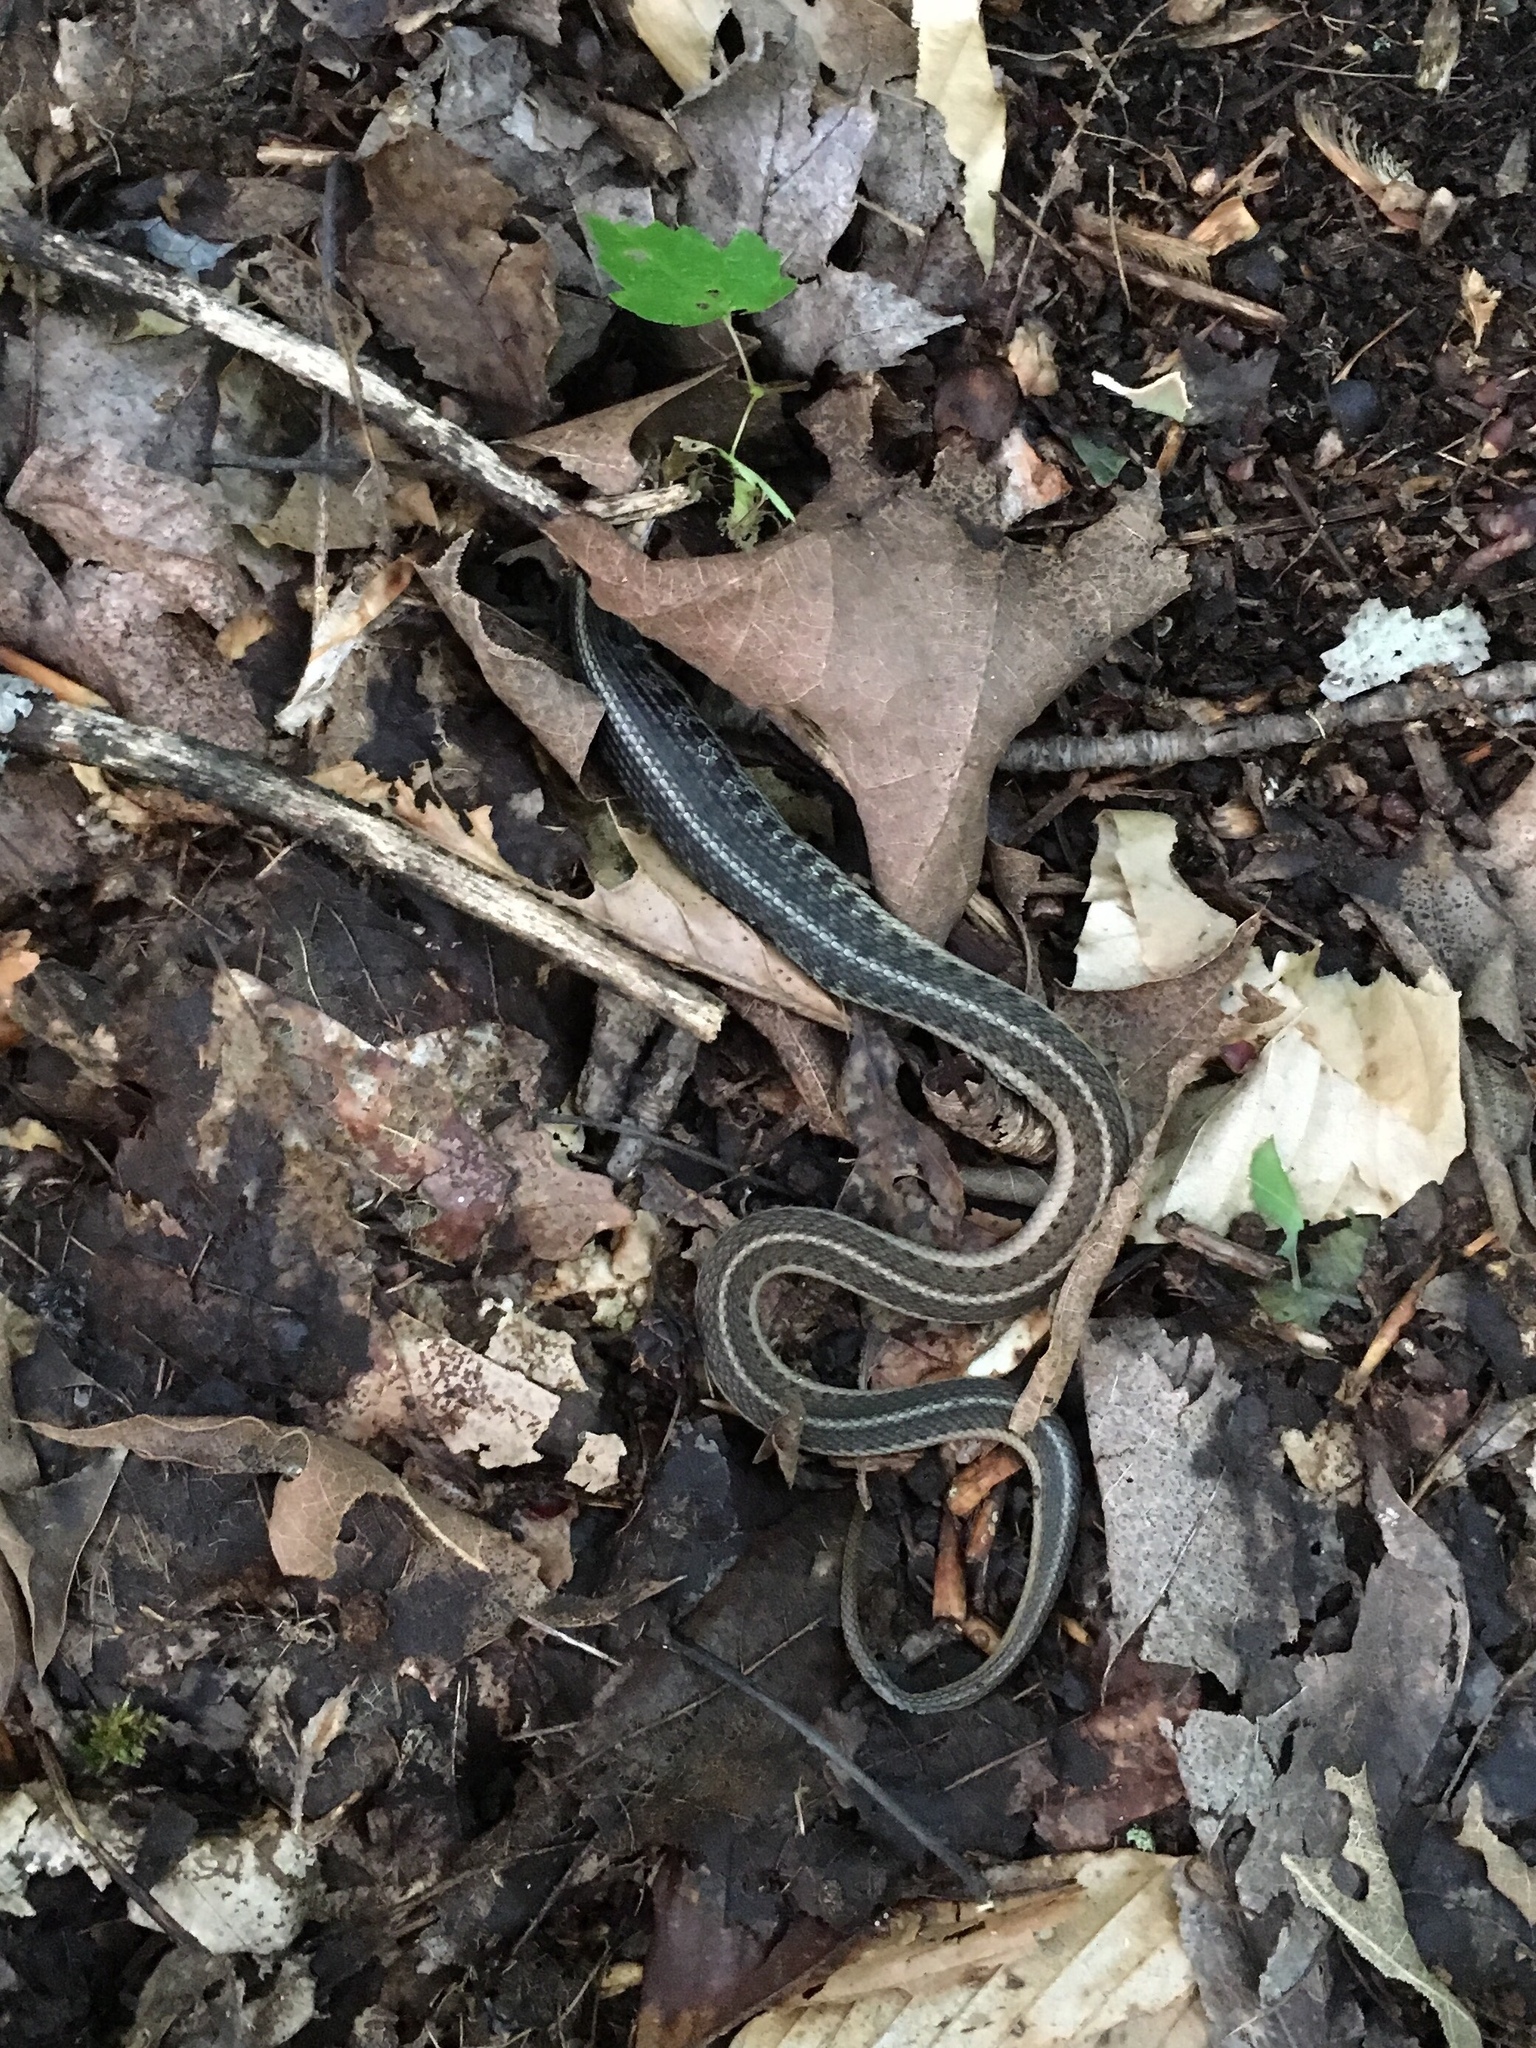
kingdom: Animalia
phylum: Chordata
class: Squamata
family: Colubridae
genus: Thamnophis
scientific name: Thamnophis sirtalis
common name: Common garter snake
